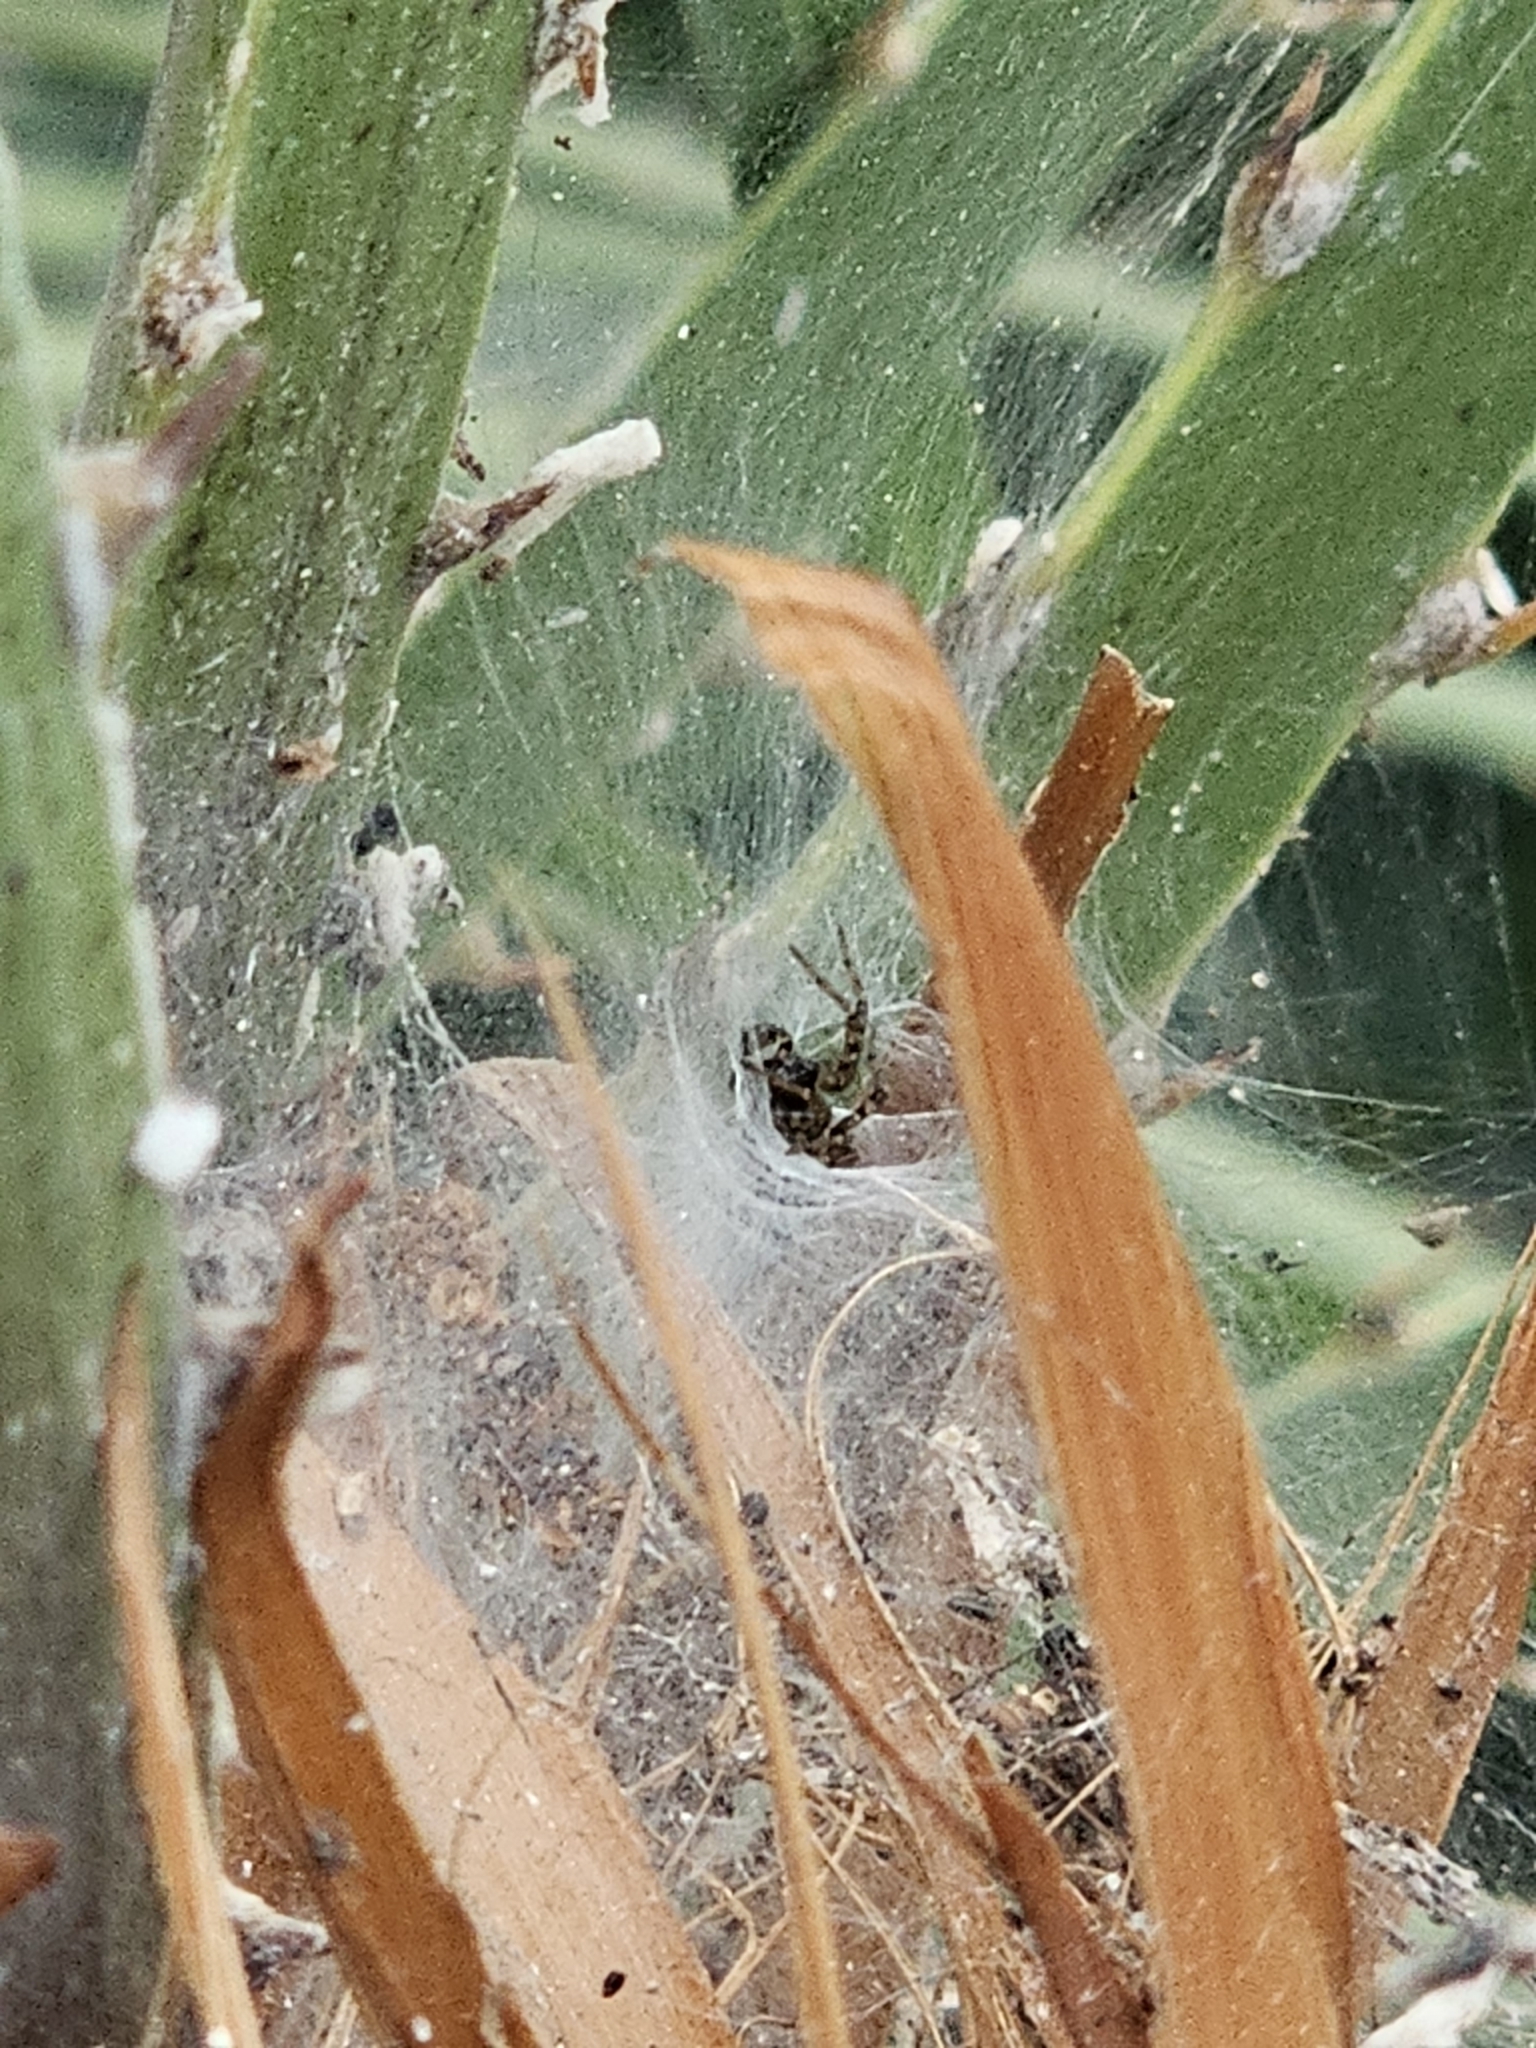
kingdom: Animalia
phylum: Arthropoda
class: Arachnida
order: Araneae
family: Agelenidae
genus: Textrix
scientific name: Textrix denticulata
